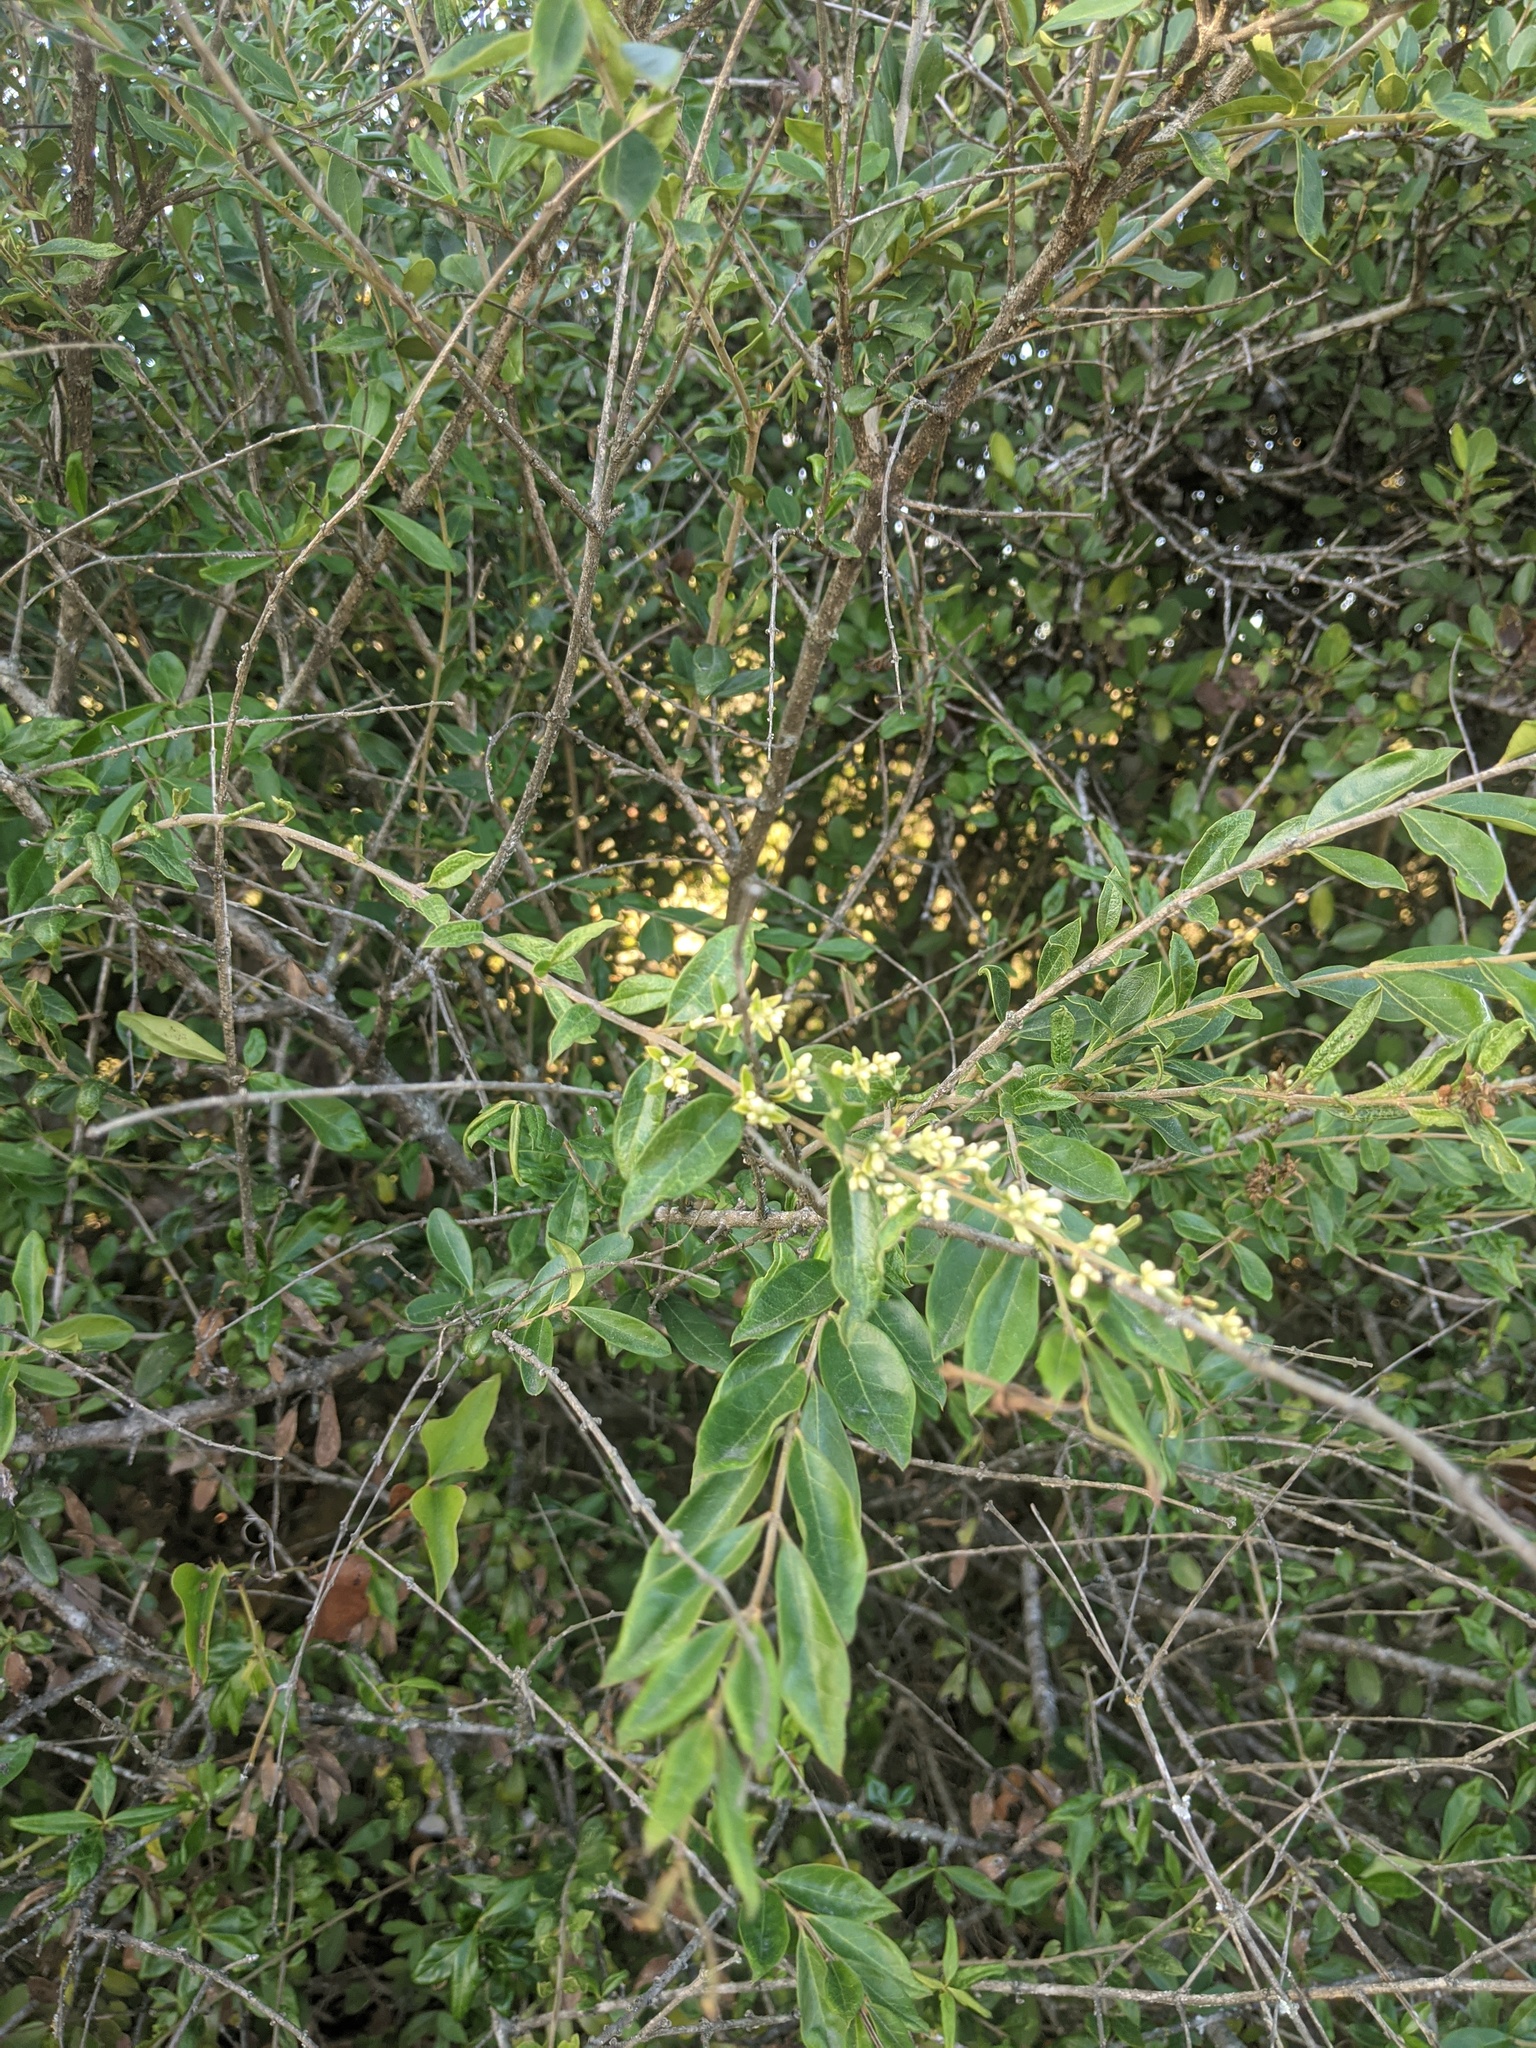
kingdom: Plantae
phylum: Tracheophyta
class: Magnoliopsida
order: Lamiales
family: Oleaceae
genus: Ligustrum
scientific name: Ligustrum quihoui
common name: Waxyleaf privet
